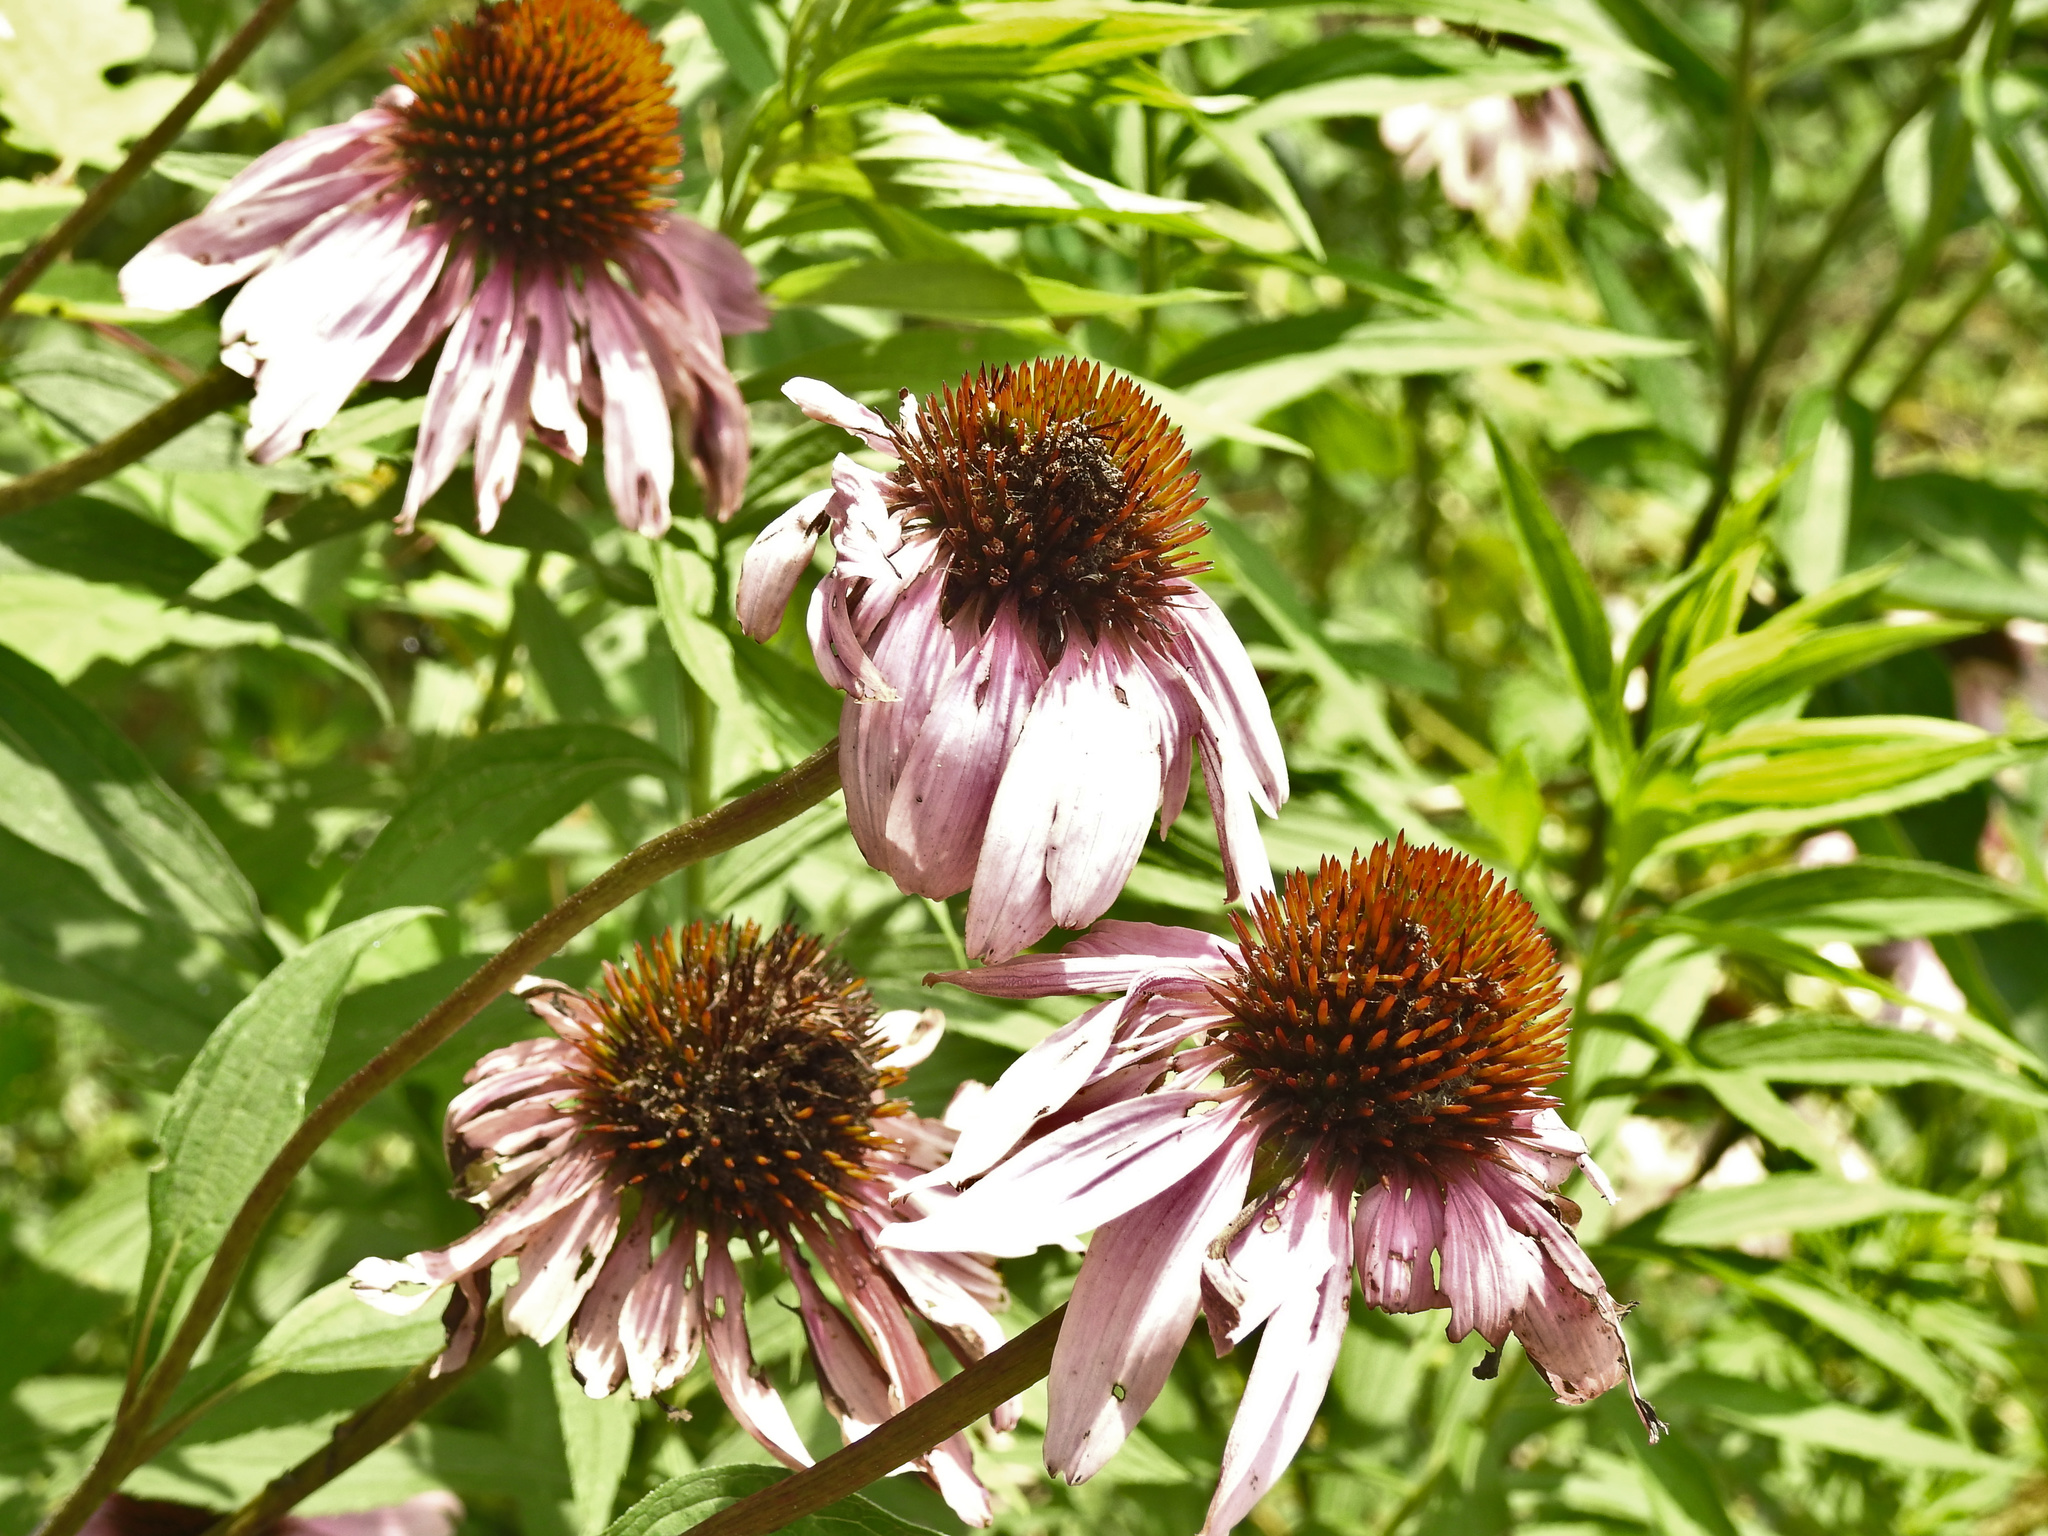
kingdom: Plantae
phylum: Tracheophyta
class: Magnoliopsida
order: Asterales
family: Asteraceae
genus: Echinacea
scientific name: Echinacea purpurea
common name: Broad-leaved purple coneflower
